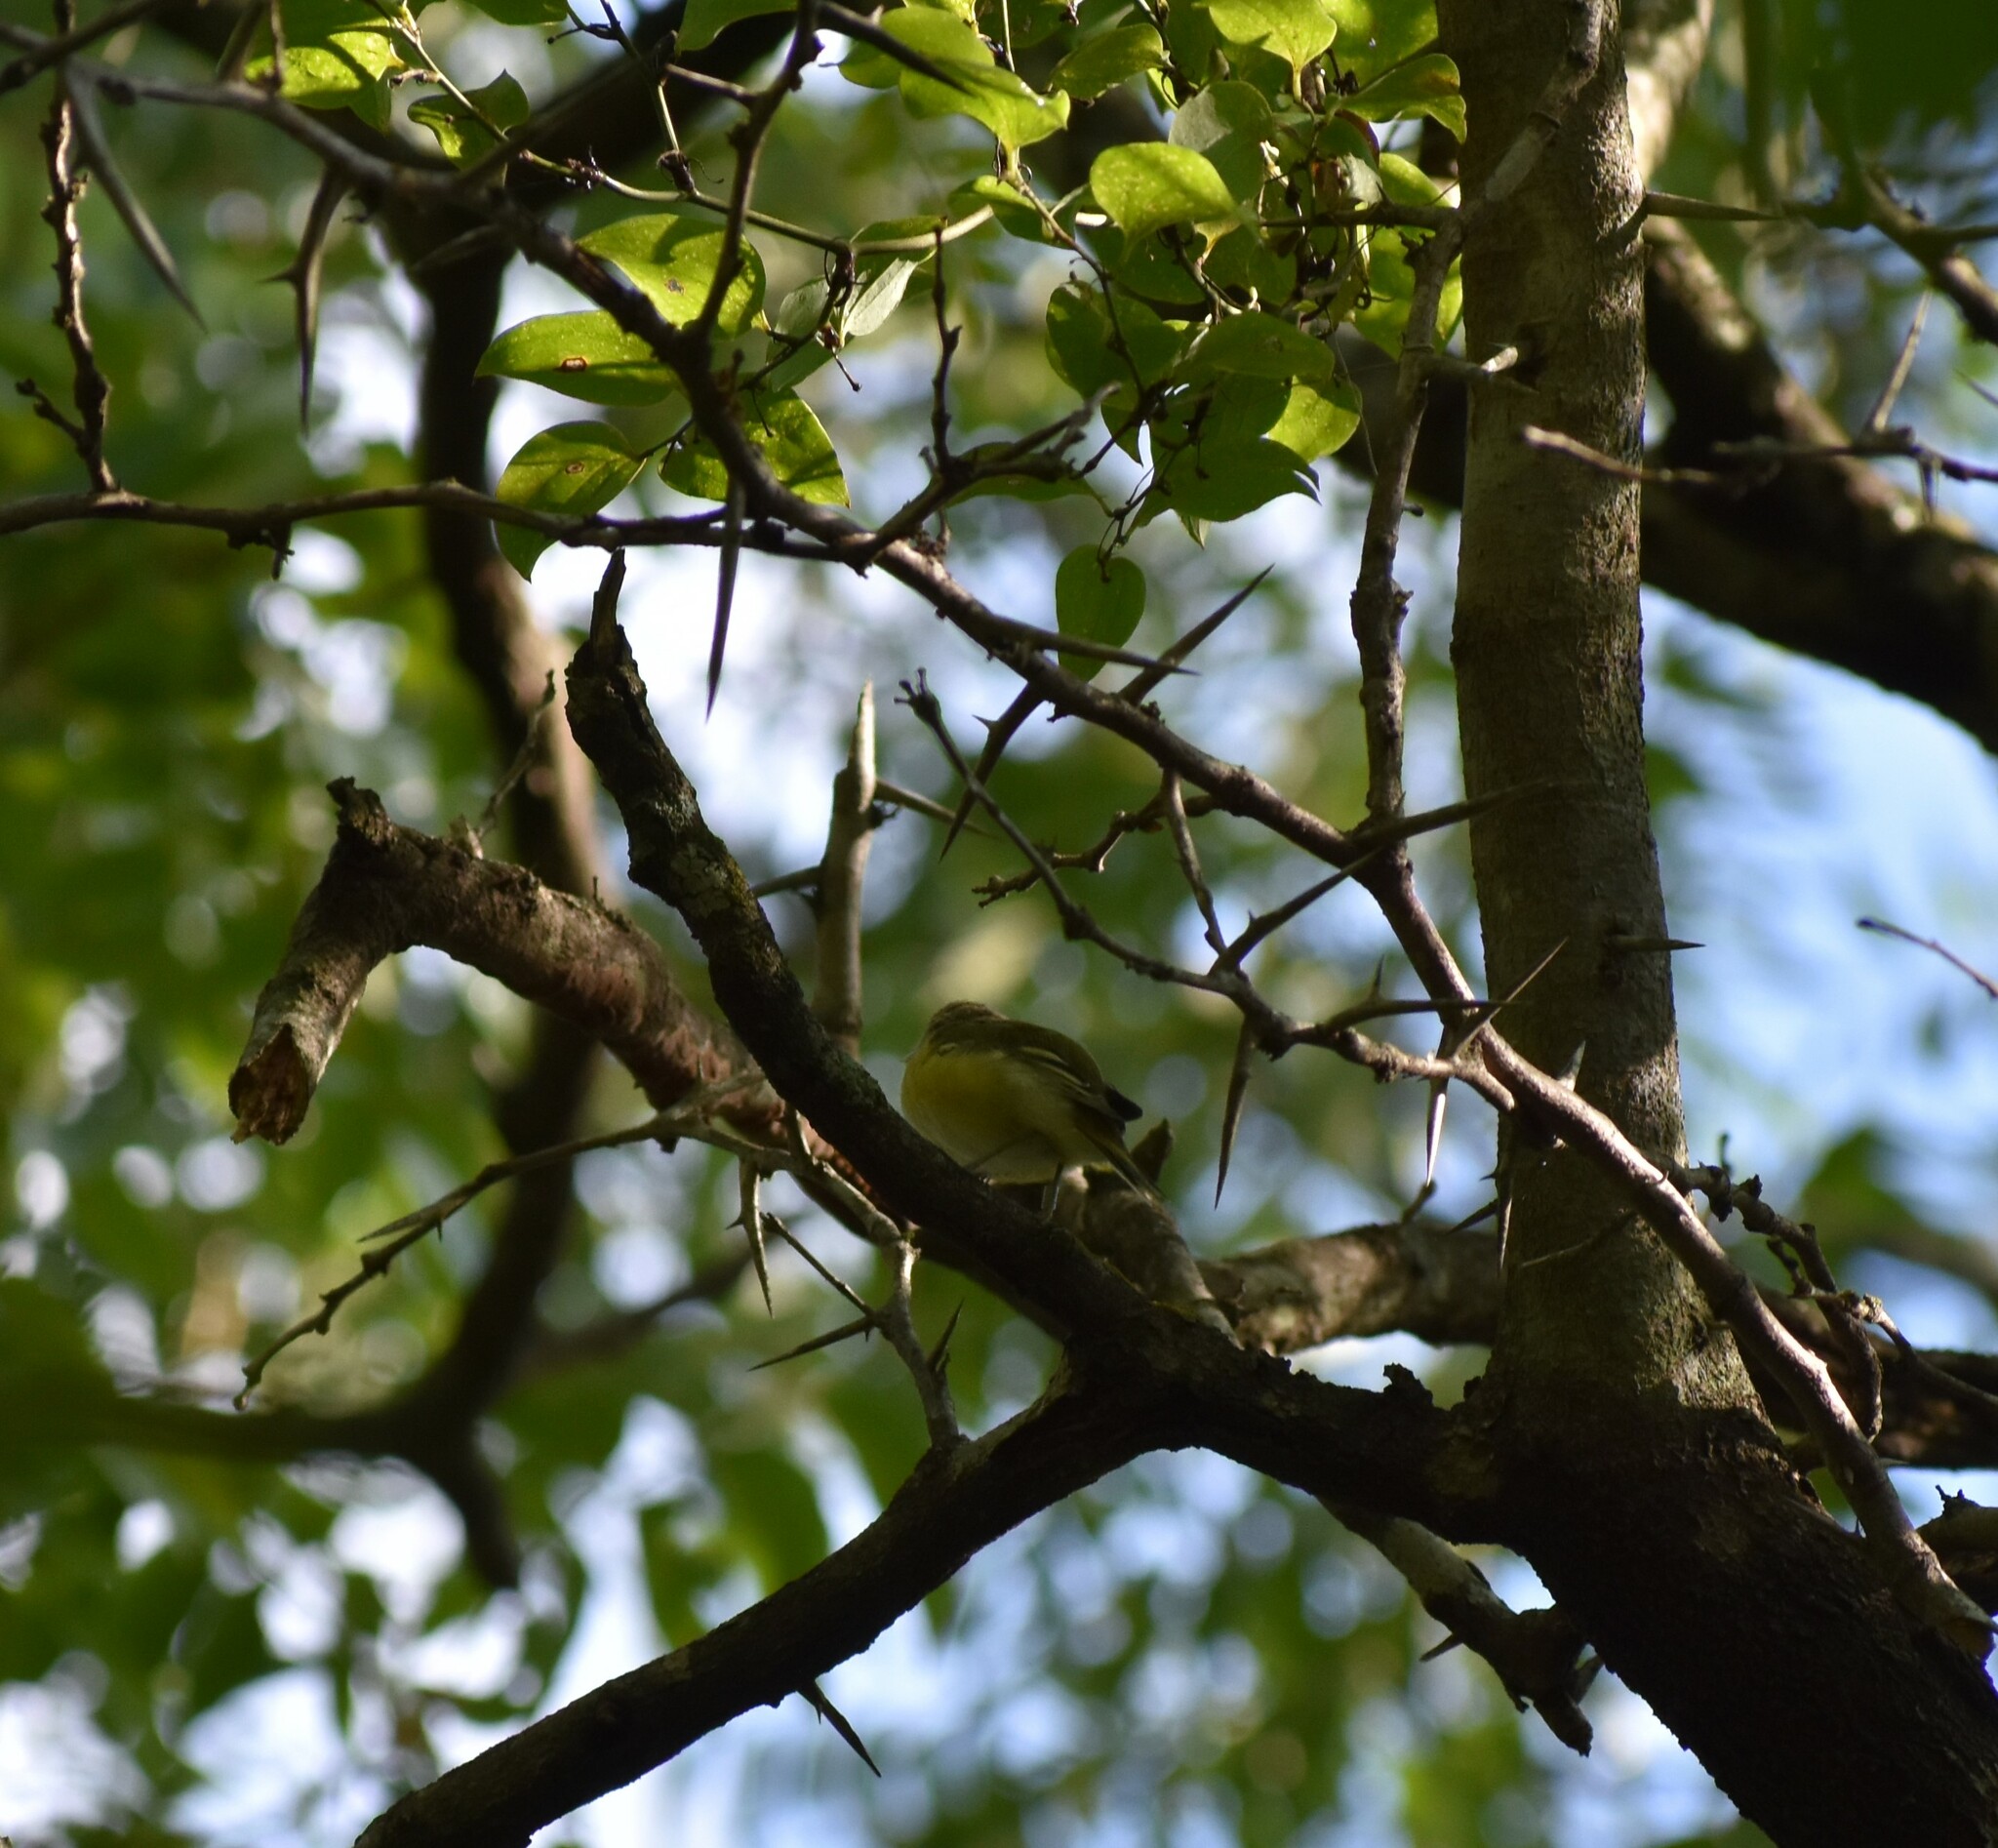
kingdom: Animalia
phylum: Chordata
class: Aves
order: Passeriformes
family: Vireonidae
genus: Vireo
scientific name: Vireo griseus
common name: White-eyed vireo
